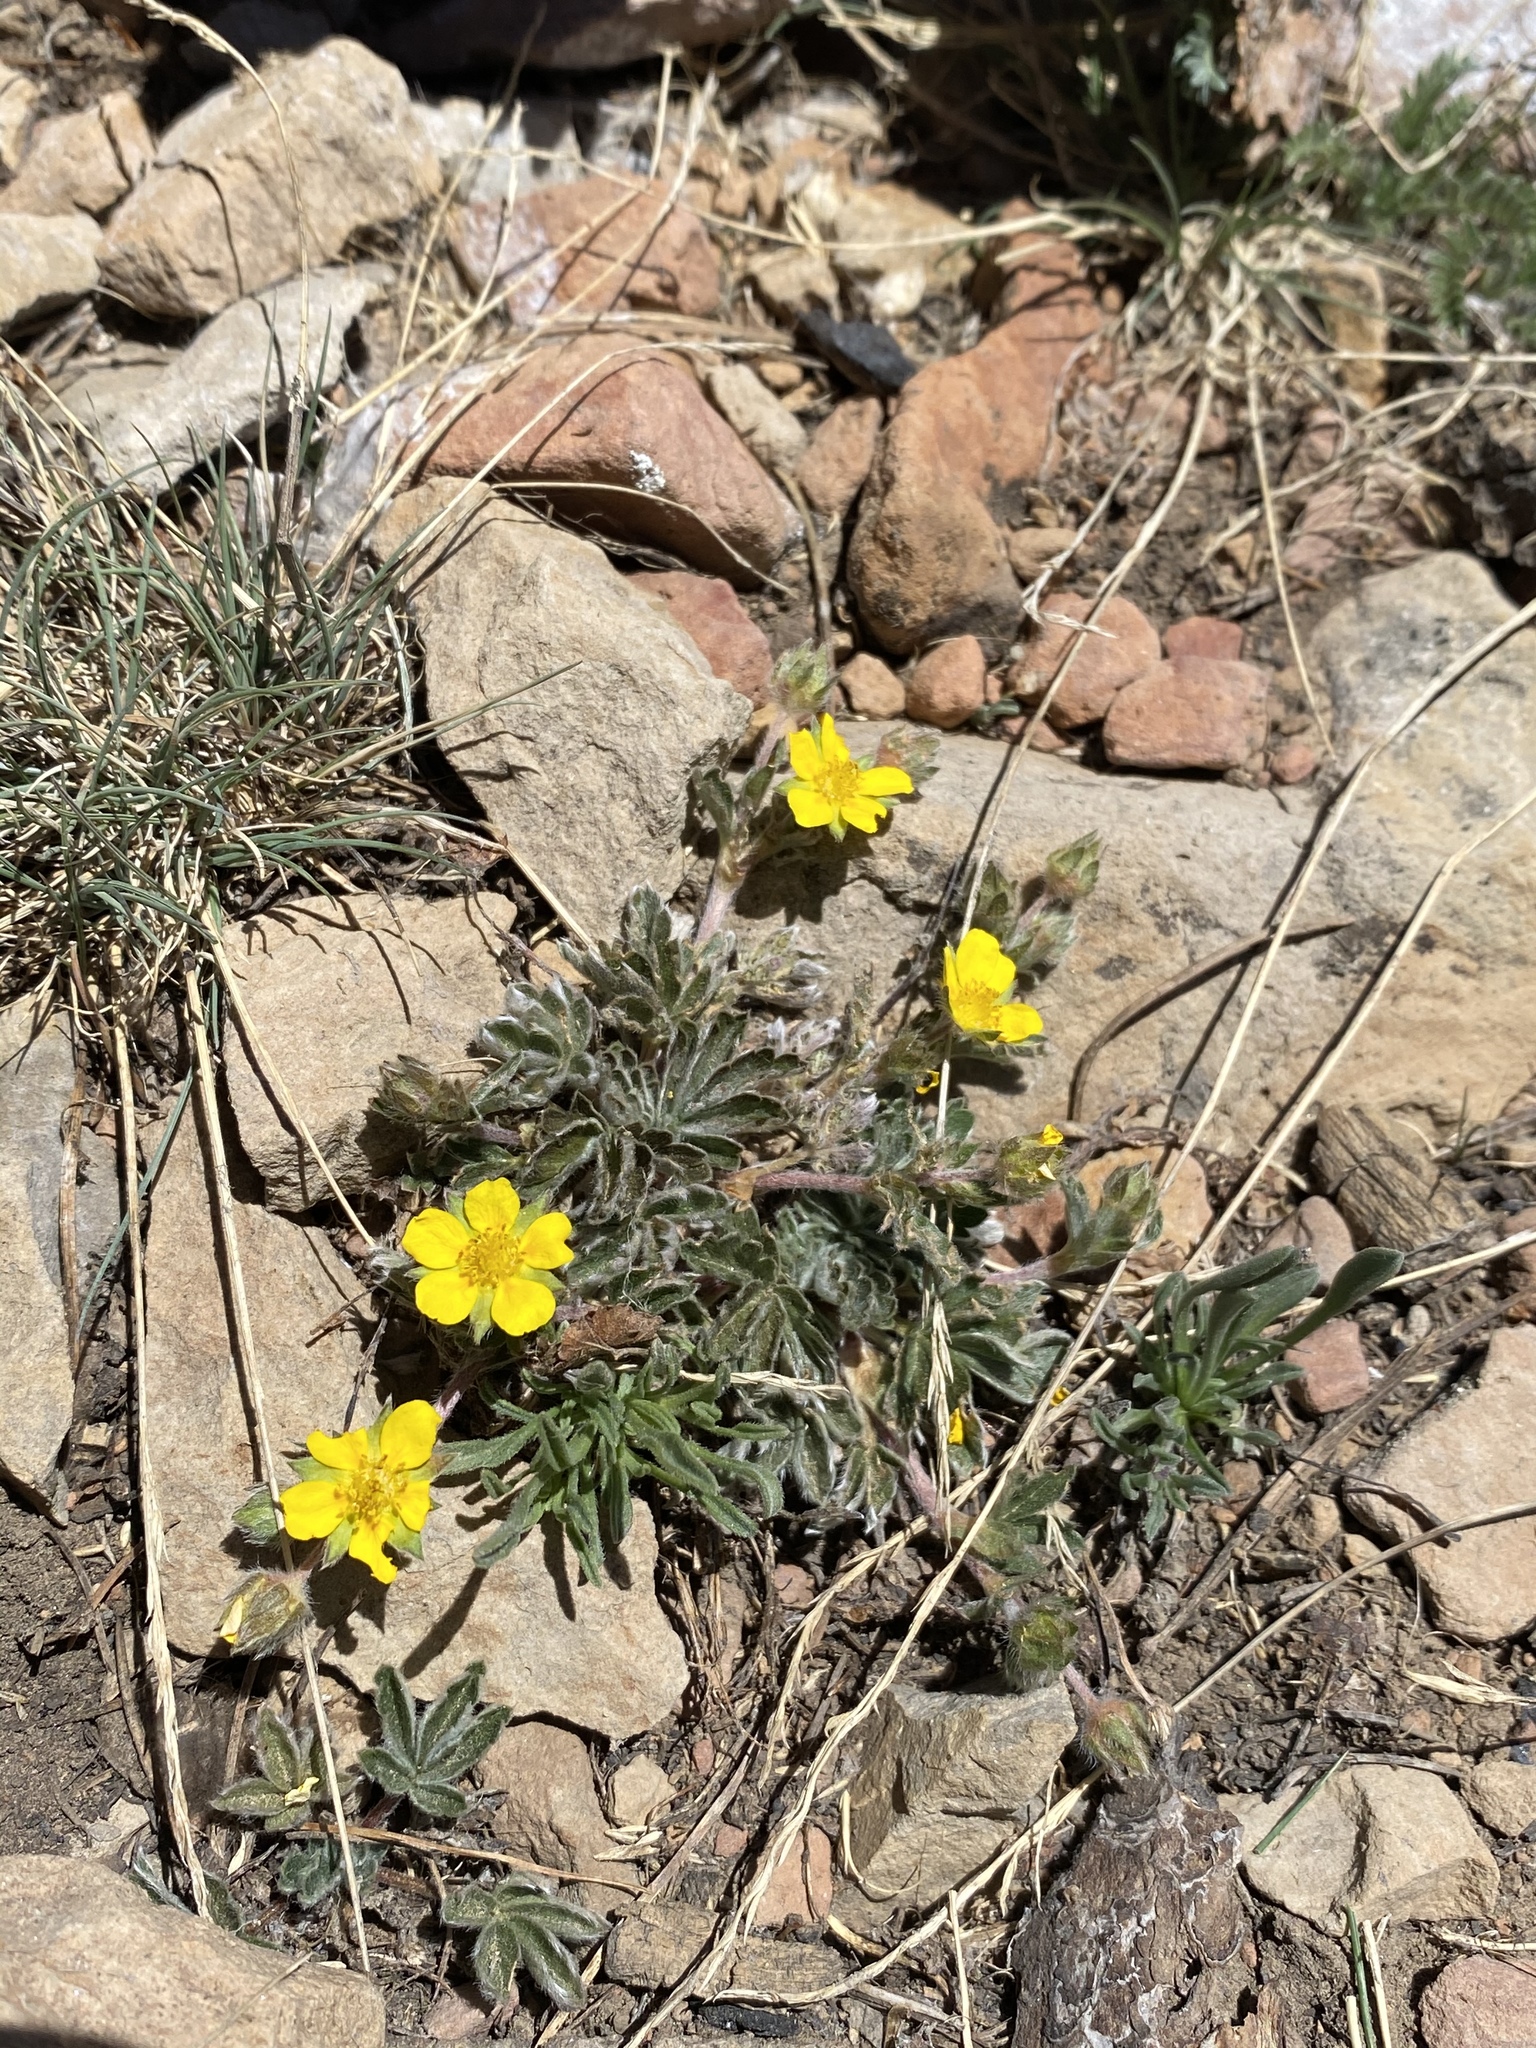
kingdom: Plantae
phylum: Tracheophyta
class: Magnoliopsida
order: Rosales
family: Rosaceae
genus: Potentilla
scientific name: Potentilla concinna
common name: Early cinquefoil
